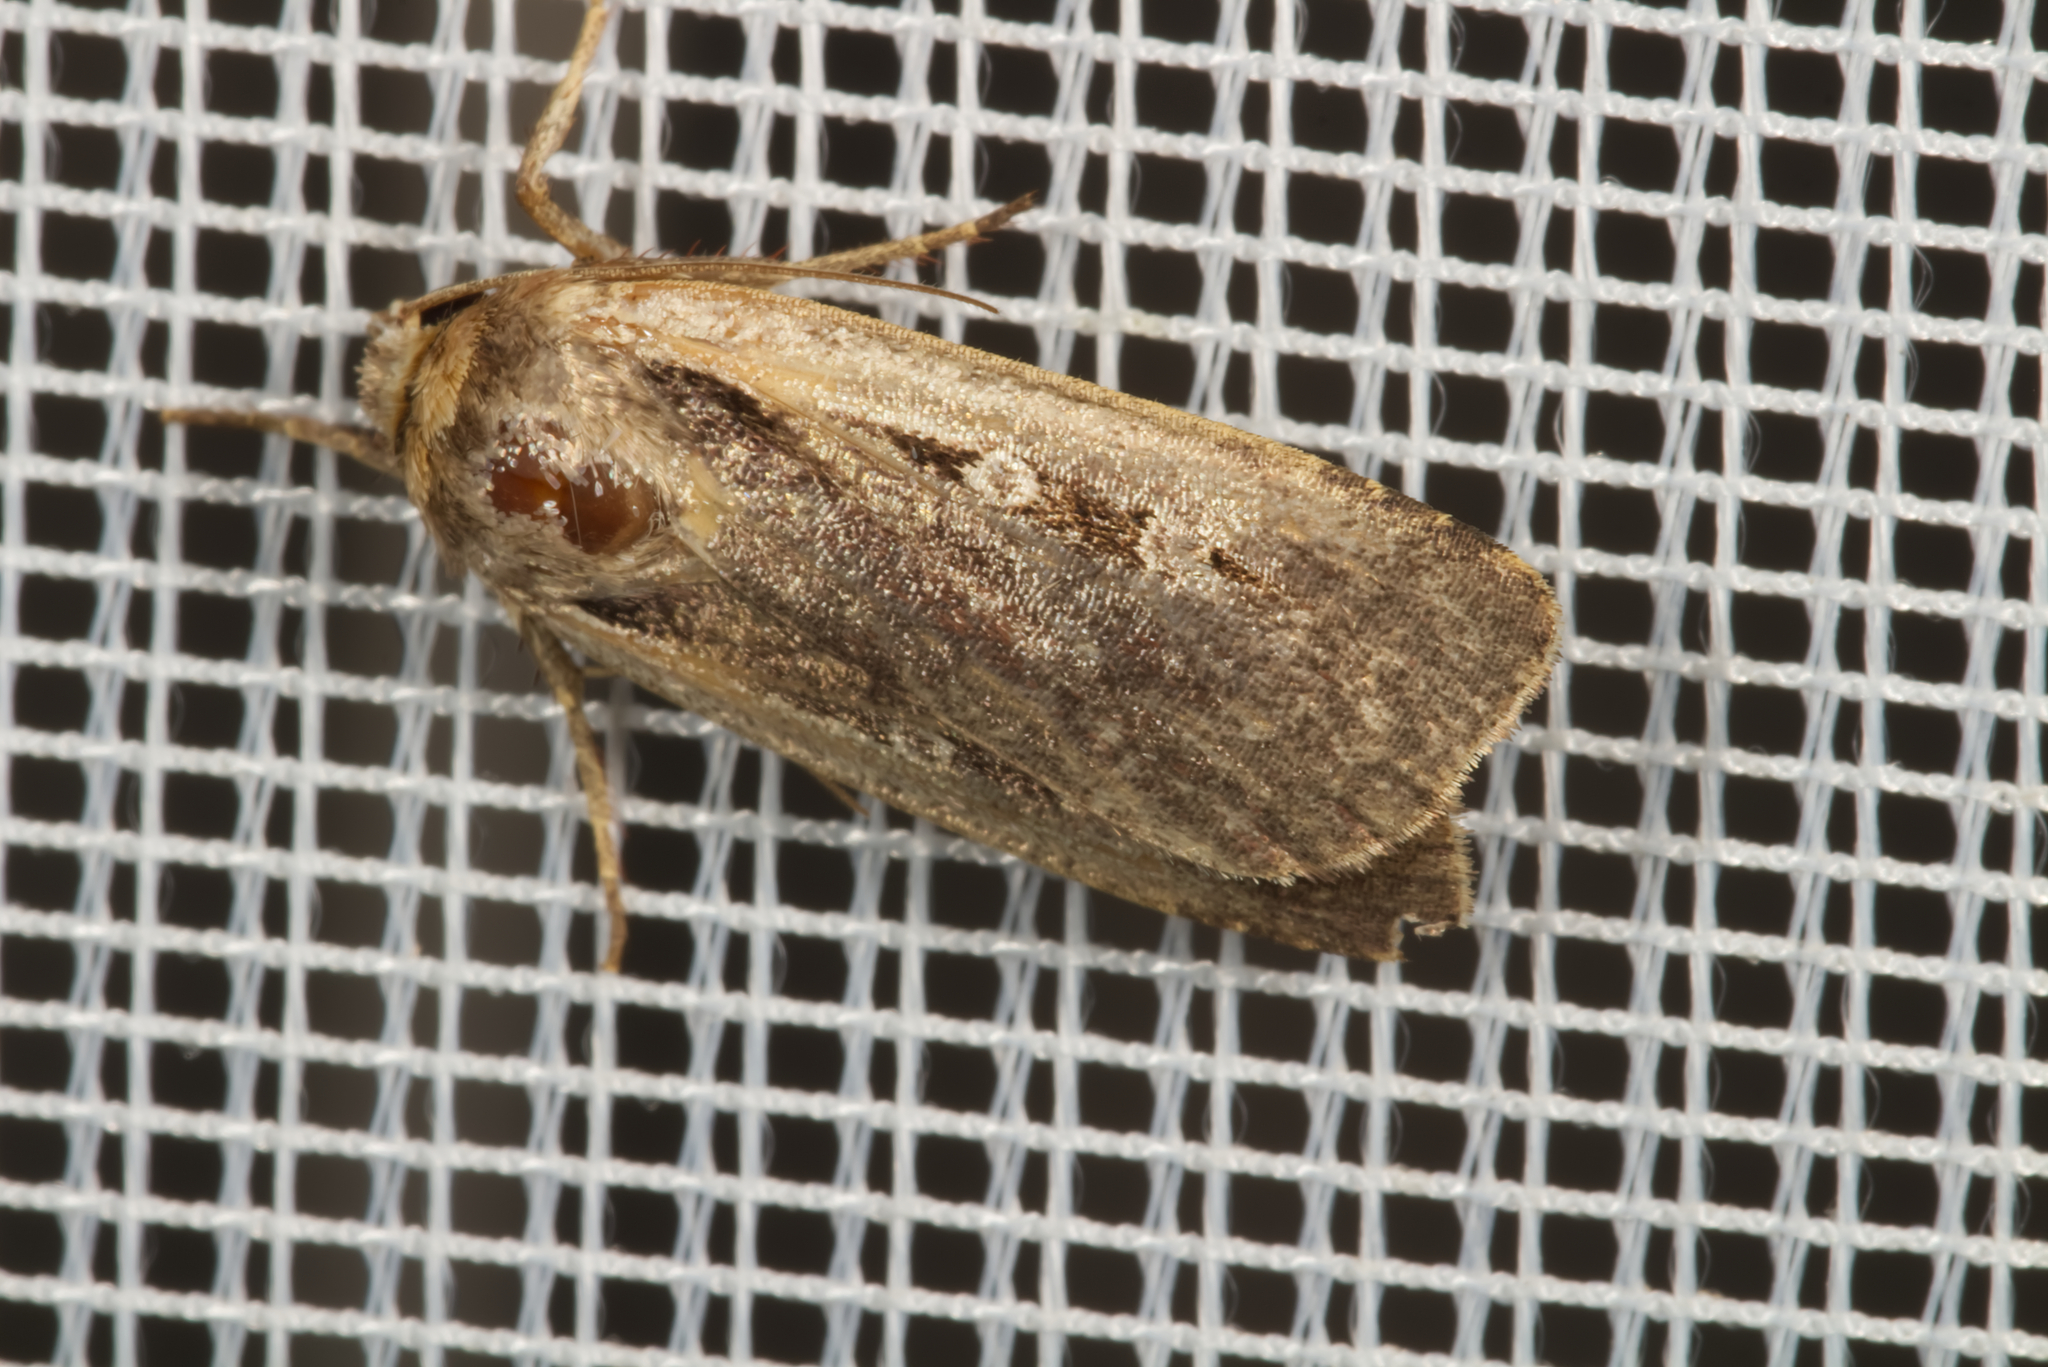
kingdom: Animalia
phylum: Arthropoda
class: Insecta
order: Lepidoptera
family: Noctuidae
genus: Ochropleura
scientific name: Ochropleura plecta
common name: Flame shoulder
